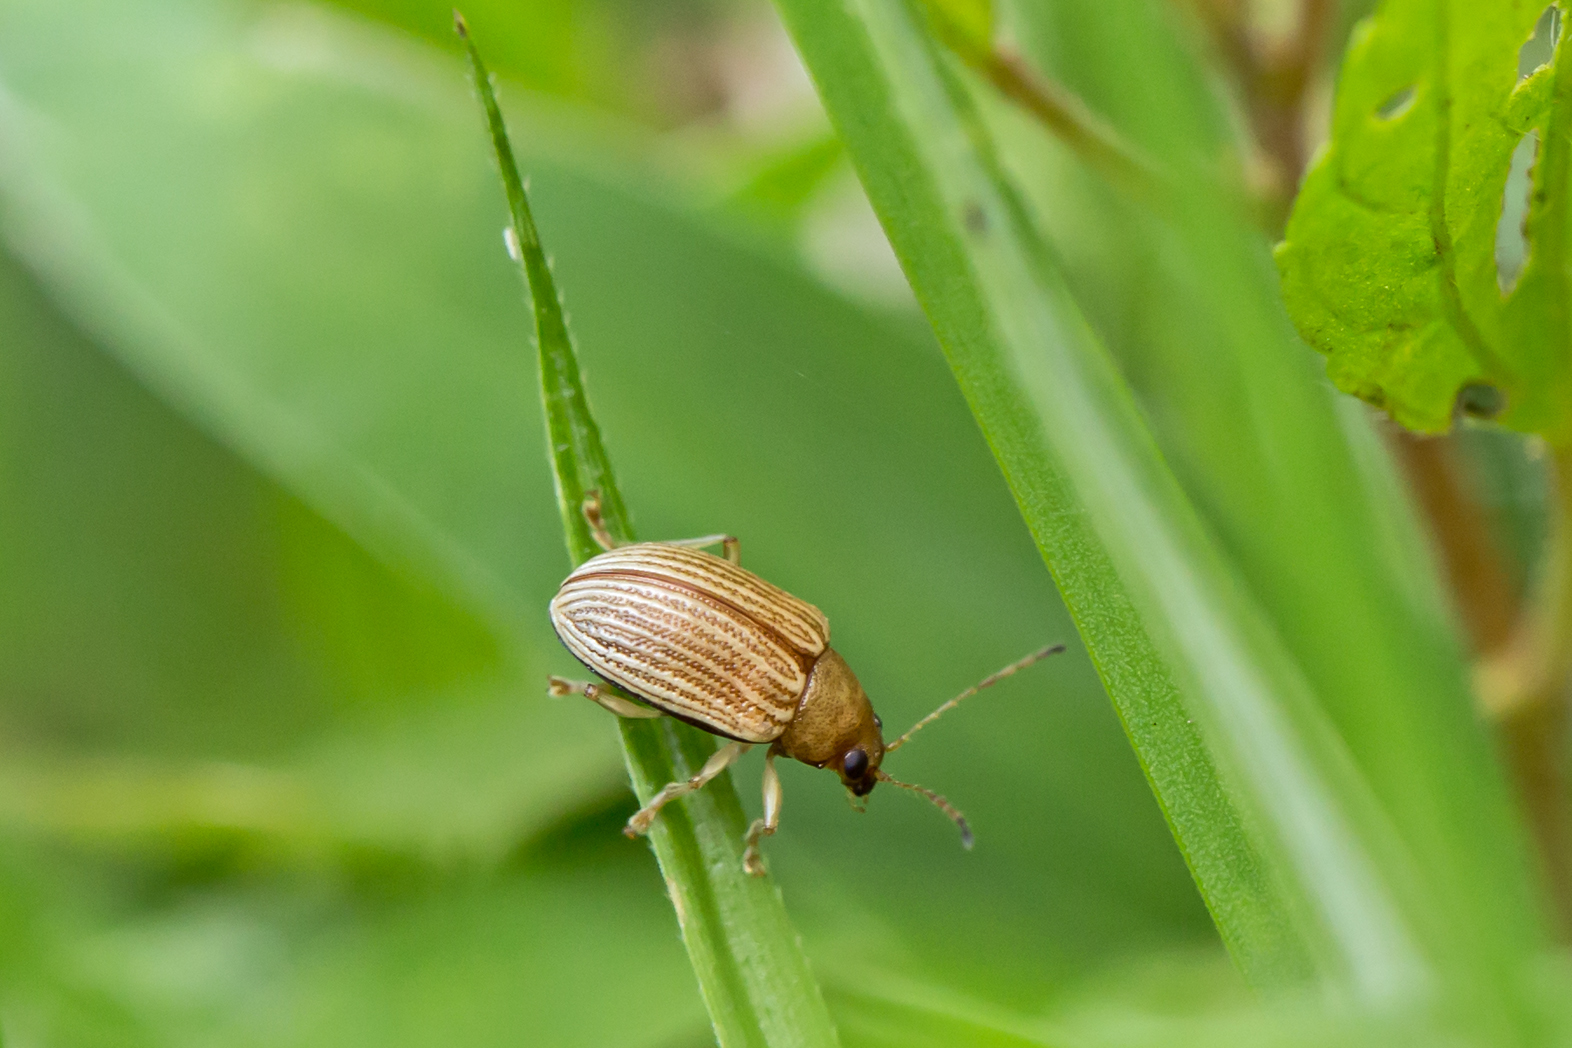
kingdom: Animalia
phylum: Arthropoda
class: Insecta
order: Coleoptera
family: Chrysomelidae
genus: Colaspis
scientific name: Colaspis brunnea
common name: Grape colaspis
